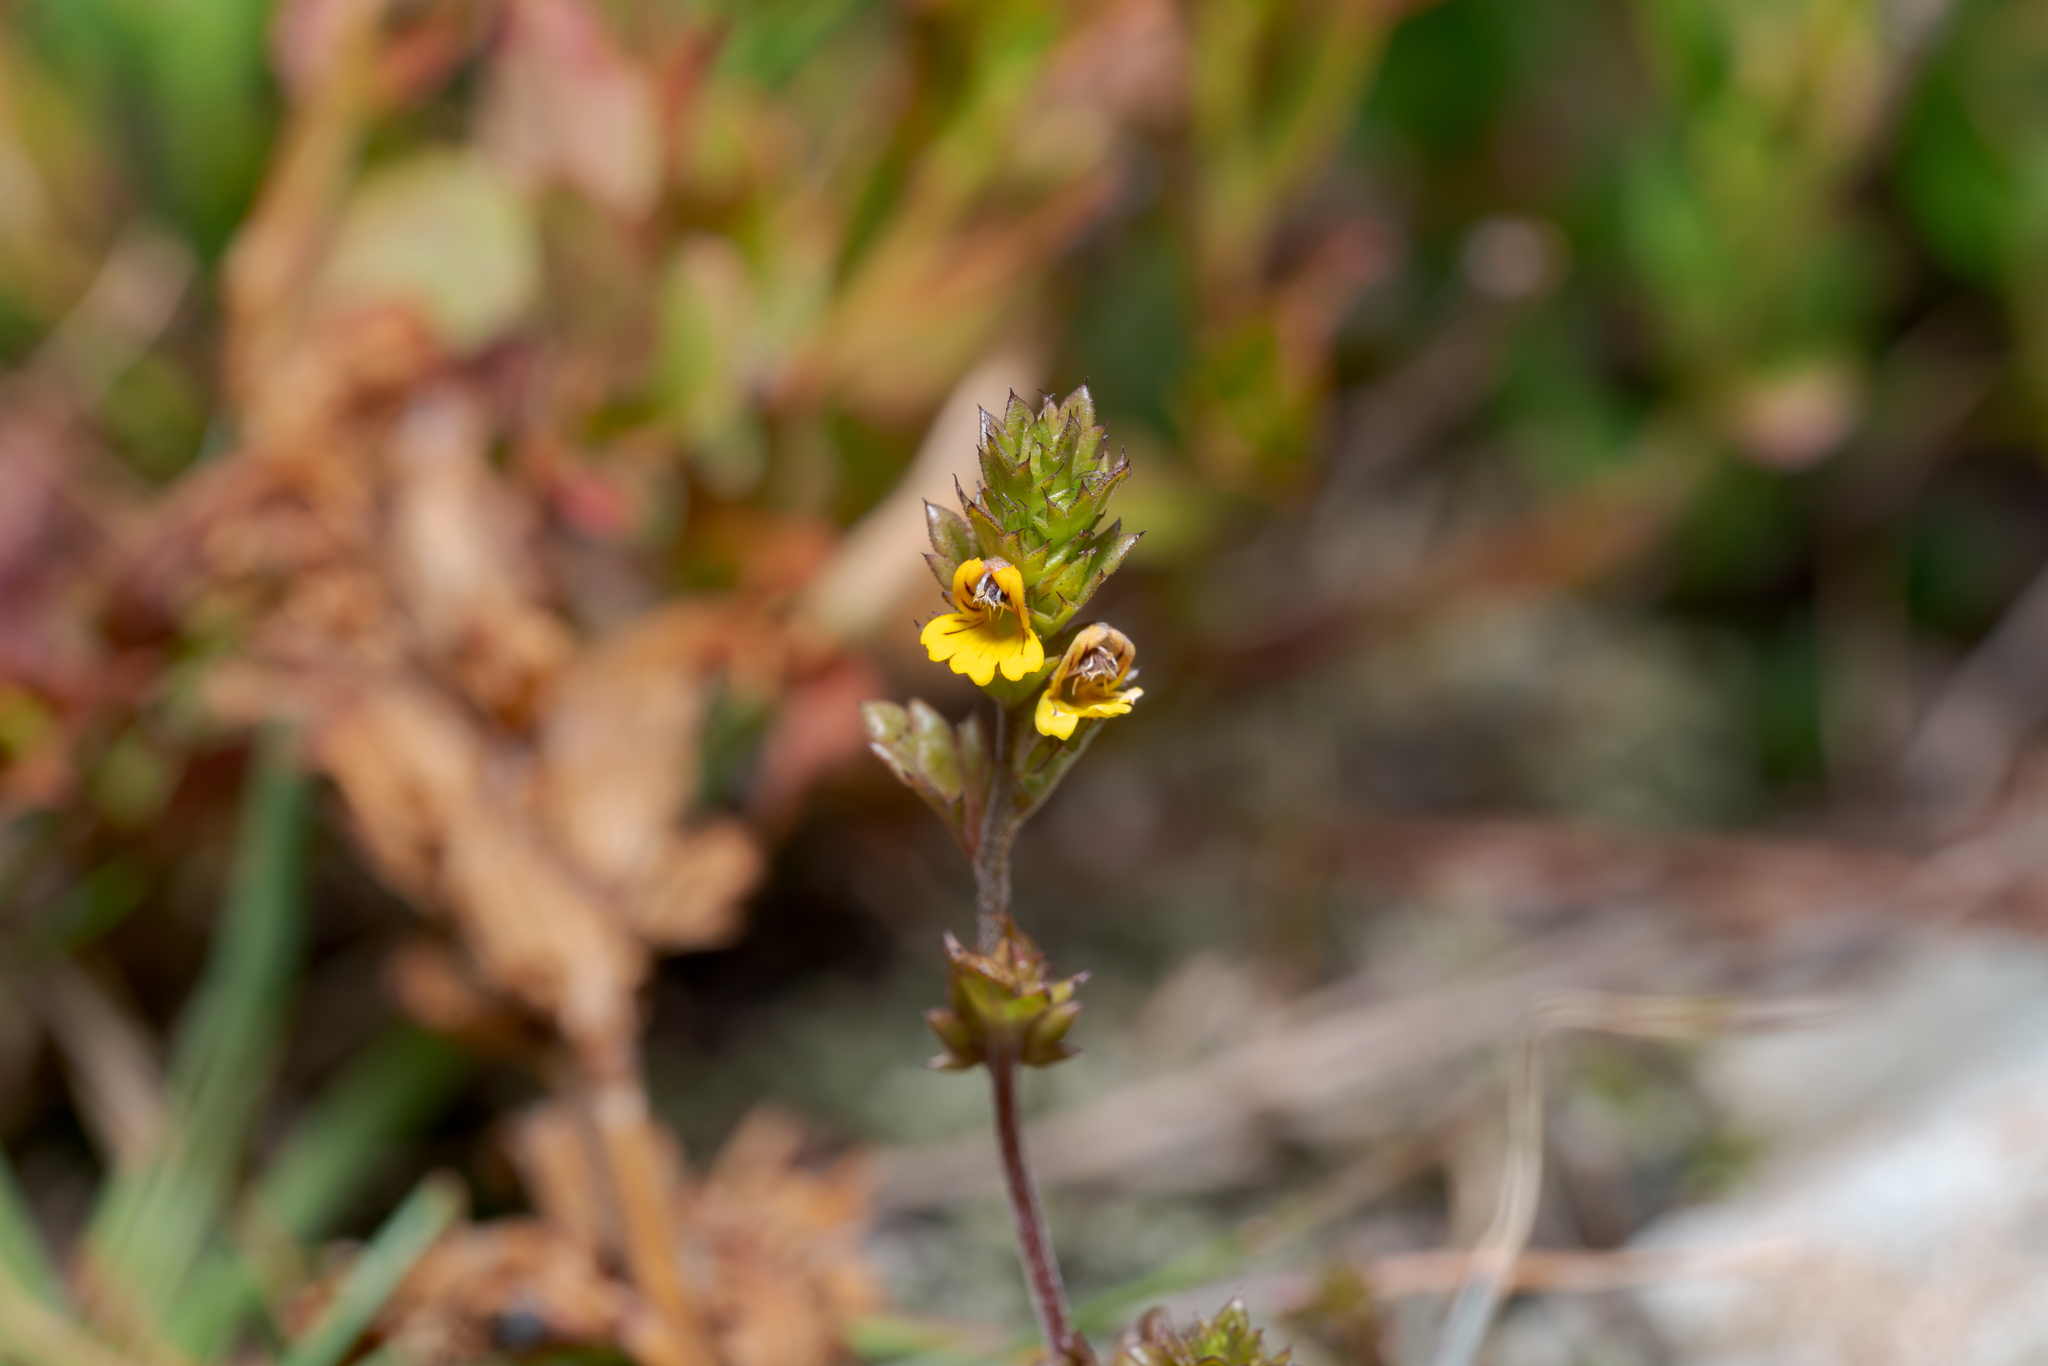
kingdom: Plantae
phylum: Tracheophyta
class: Magnoliopsida
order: Lamiales
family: Orobanchaceae
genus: Euphrasia
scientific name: Euphrasia minima
